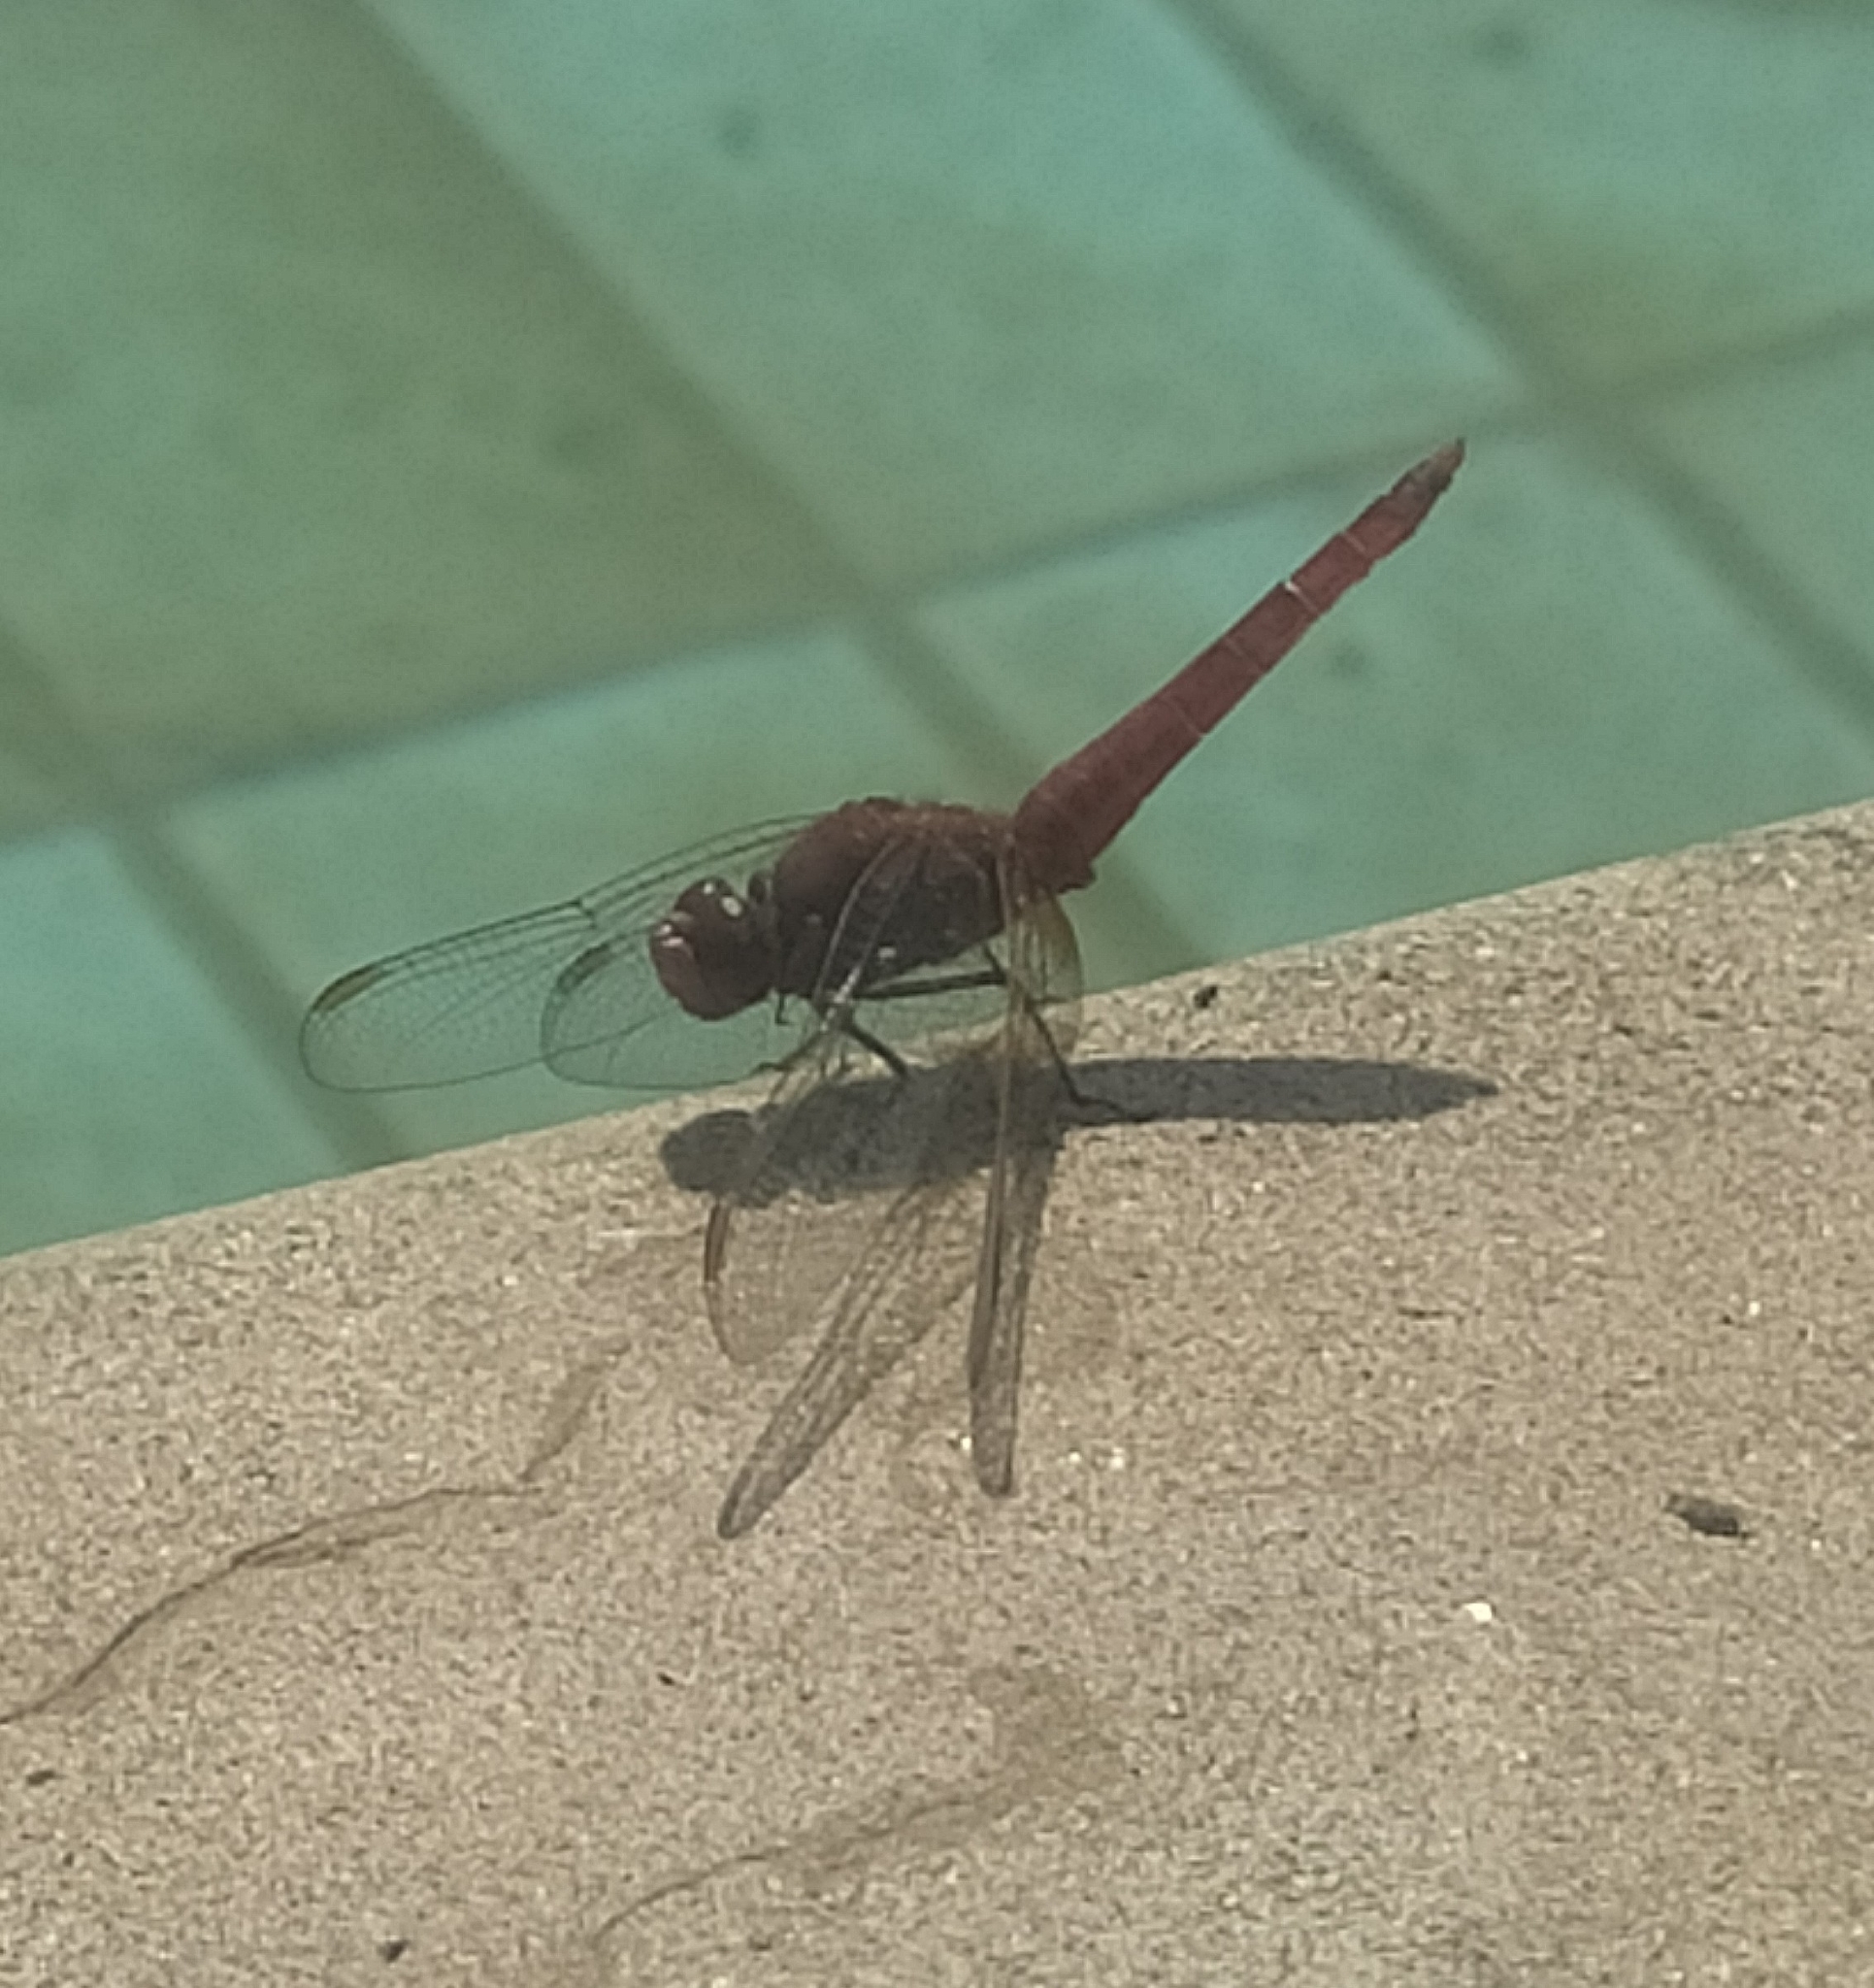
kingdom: Animalia
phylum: Arthropoda
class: Insecta
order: Odonata
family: Libellulidae
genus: Crocothemis
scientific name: Crocothemis erythraea
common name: Scarlet dragonfly
